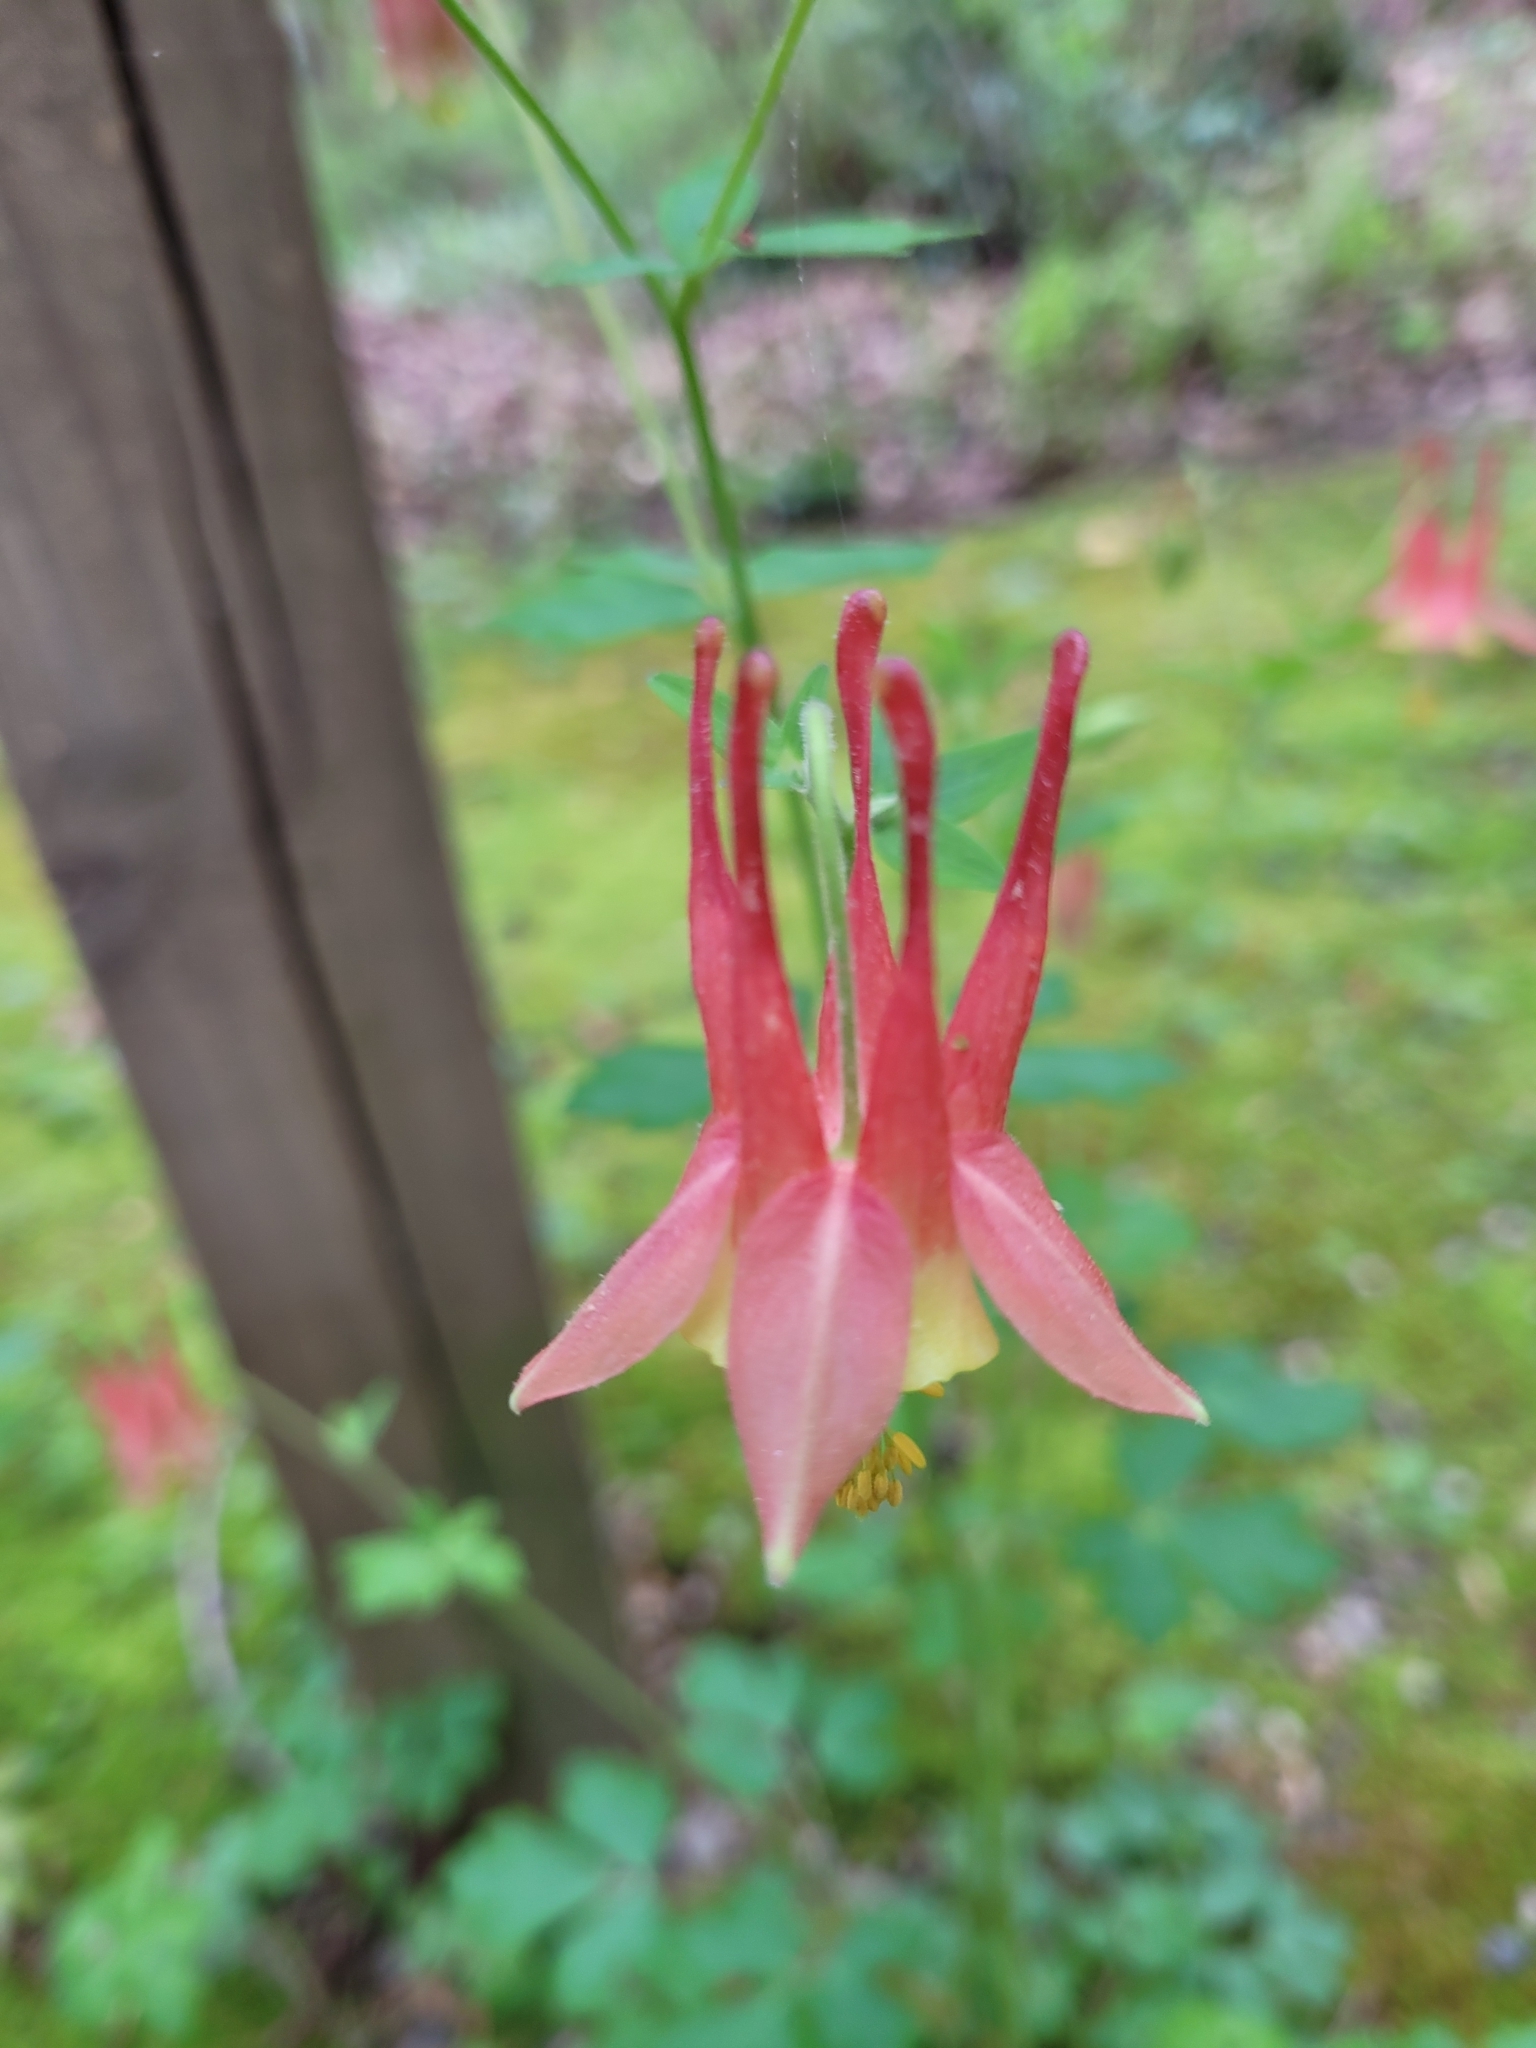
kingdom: Plantae
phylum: Tracheophyta
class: Magnoliopsida
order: Ranunculales
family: Ranunculaceae
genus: Aquilegia
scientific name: Aquilegia canadensis
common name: American columbine
